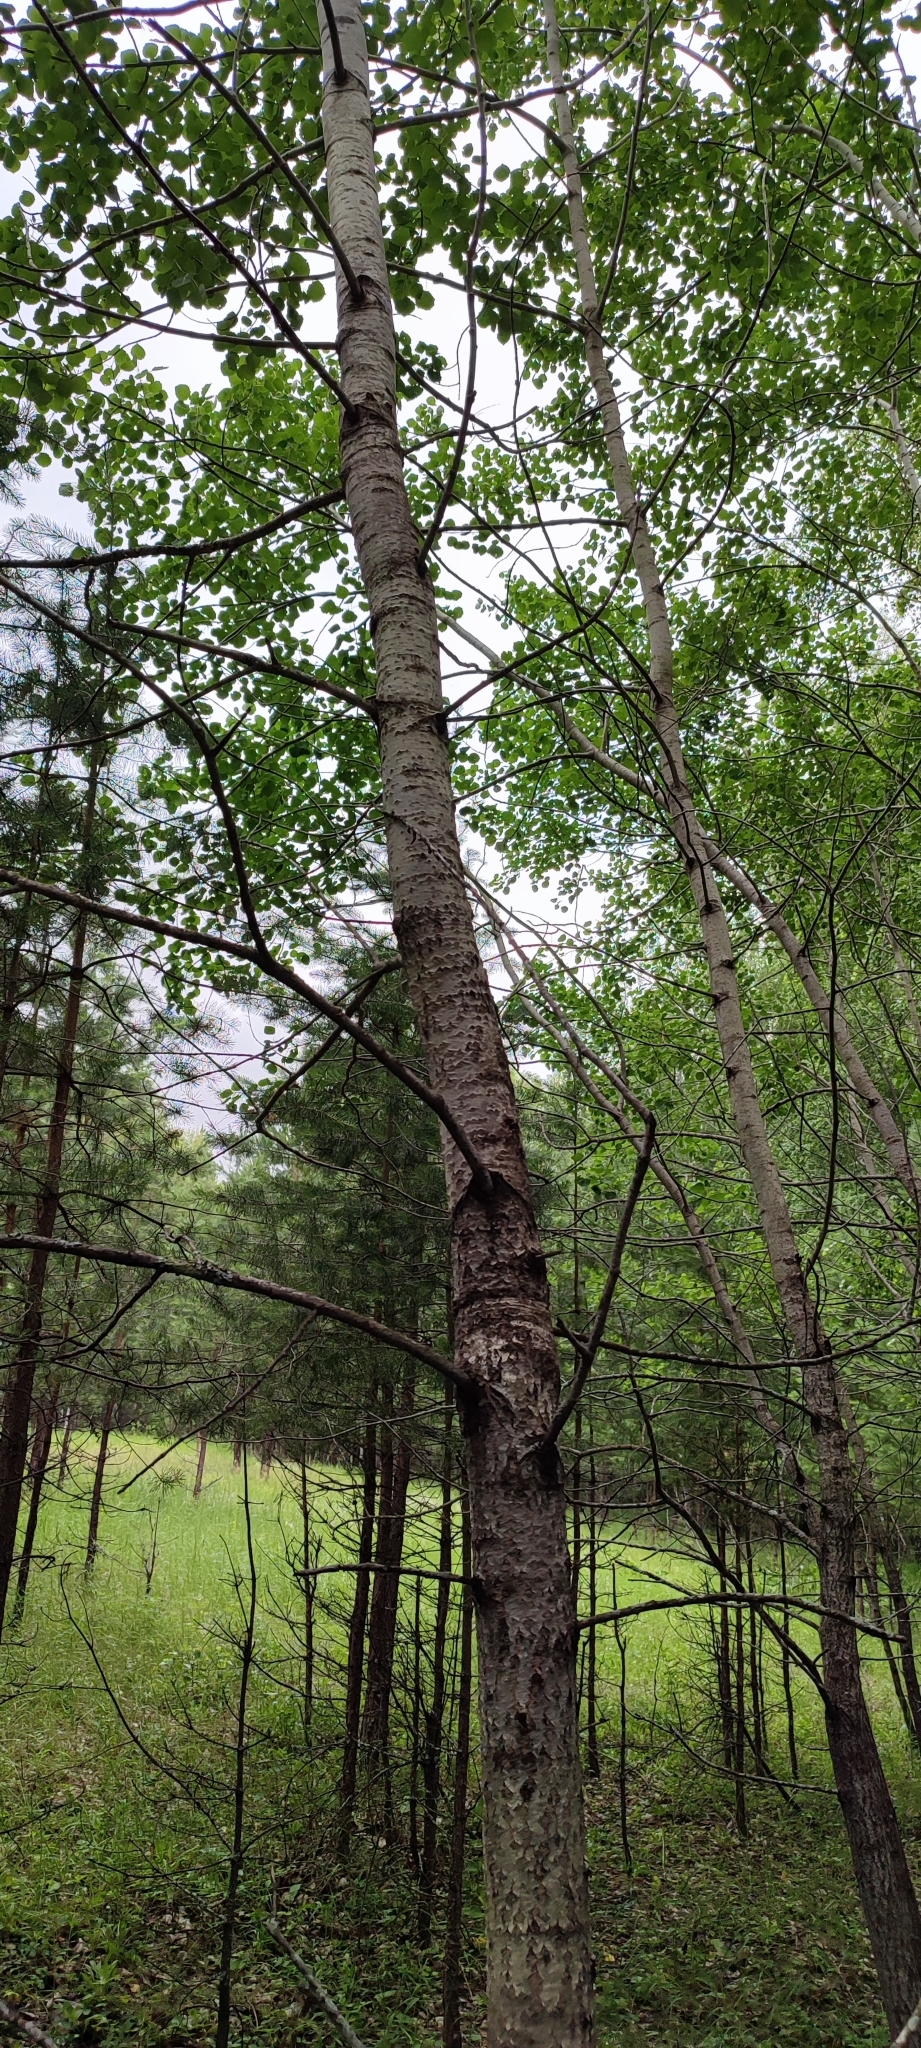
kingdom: Plantae
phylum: Tracheophyta
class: Magnoliopsida
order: Malpighiales
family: Salicaceae
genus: Populus
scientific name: Populus tremula
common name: European aspen
